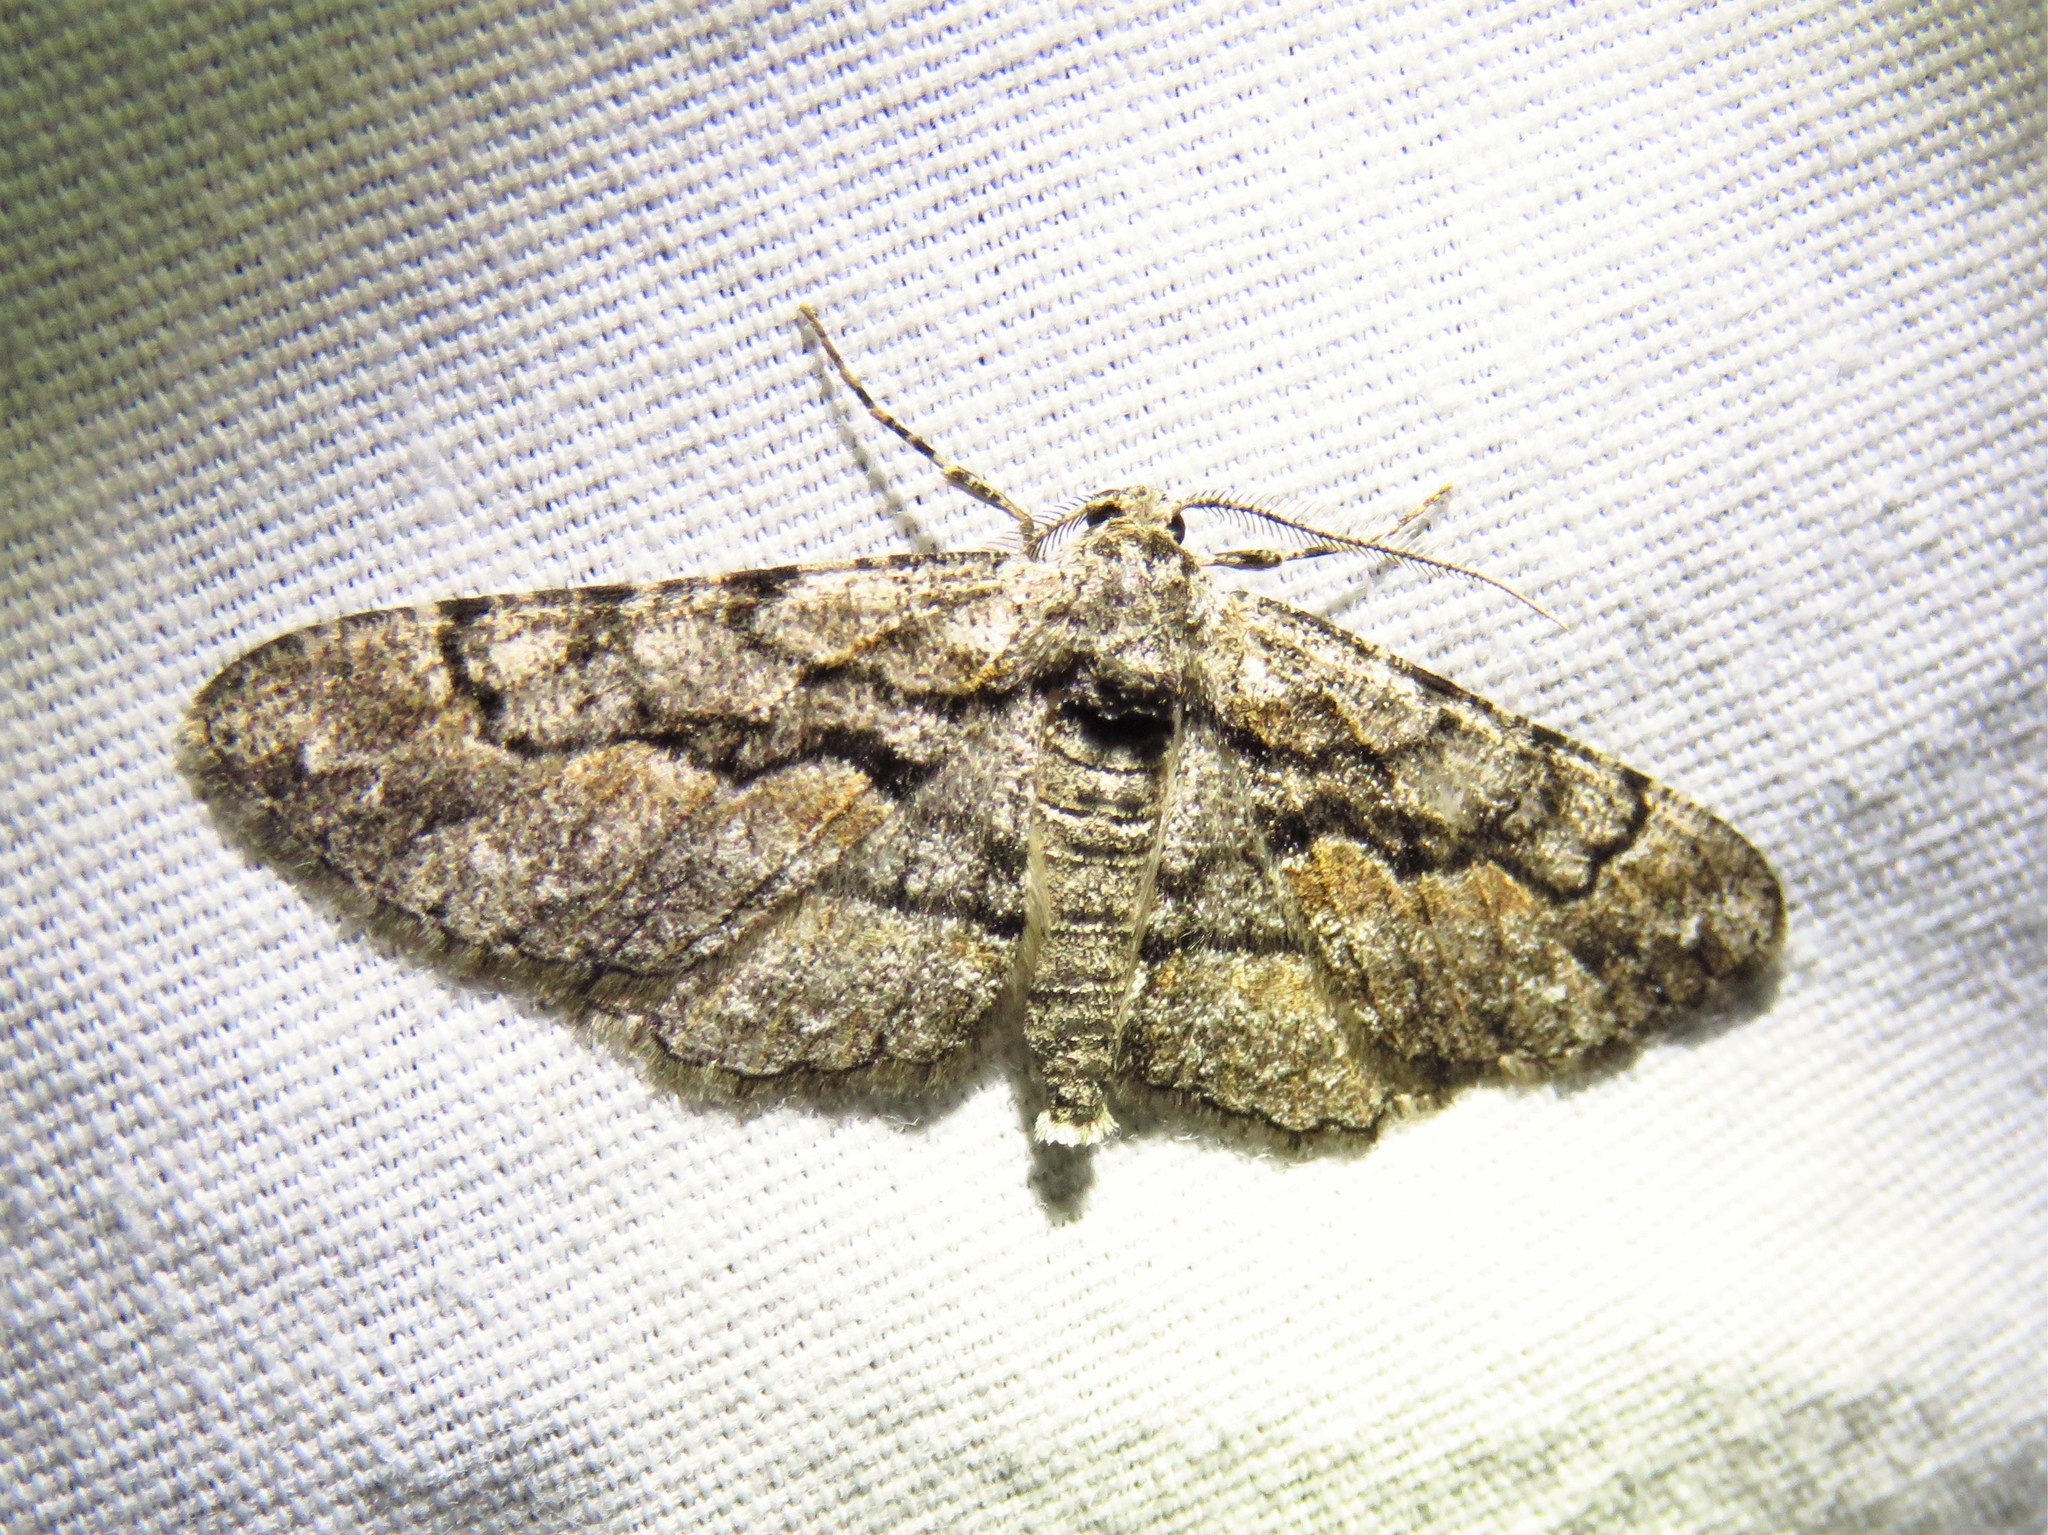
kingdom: Animalia
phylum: Arthropoda
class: Insecta
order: Lepidoptera
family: Geometridae
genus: Iridopsis
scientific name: Iridopsis dataria
